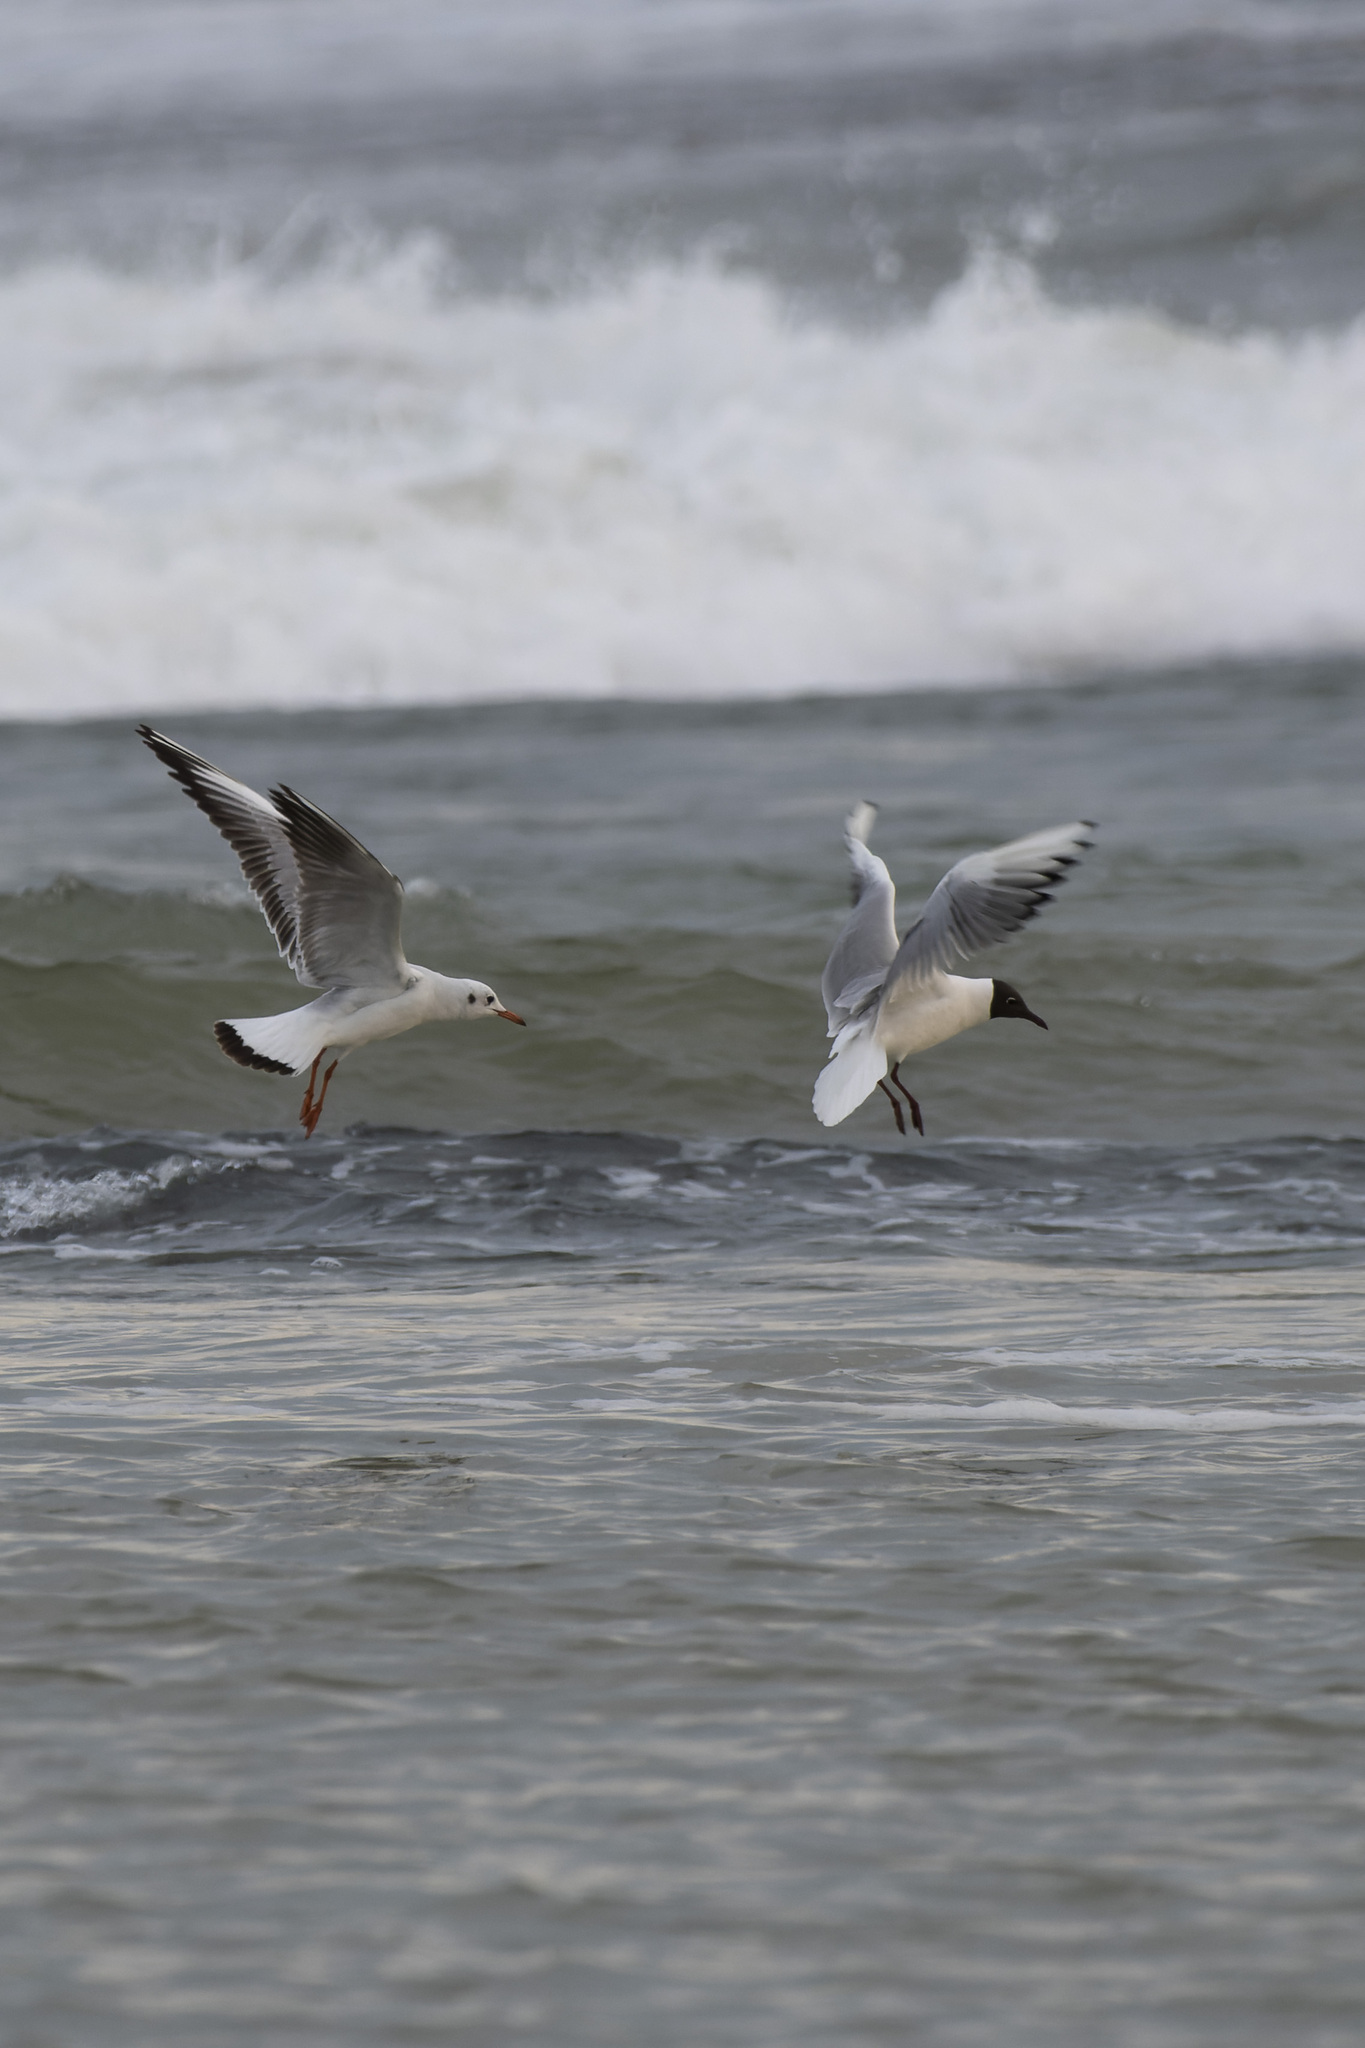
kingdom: Animalia
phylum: Chordata
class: Aves
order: Charadriiformes
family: Laridae
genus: Chroicocephalus
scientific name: Chroicocephalus ridibundus
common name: Black-headed gull
